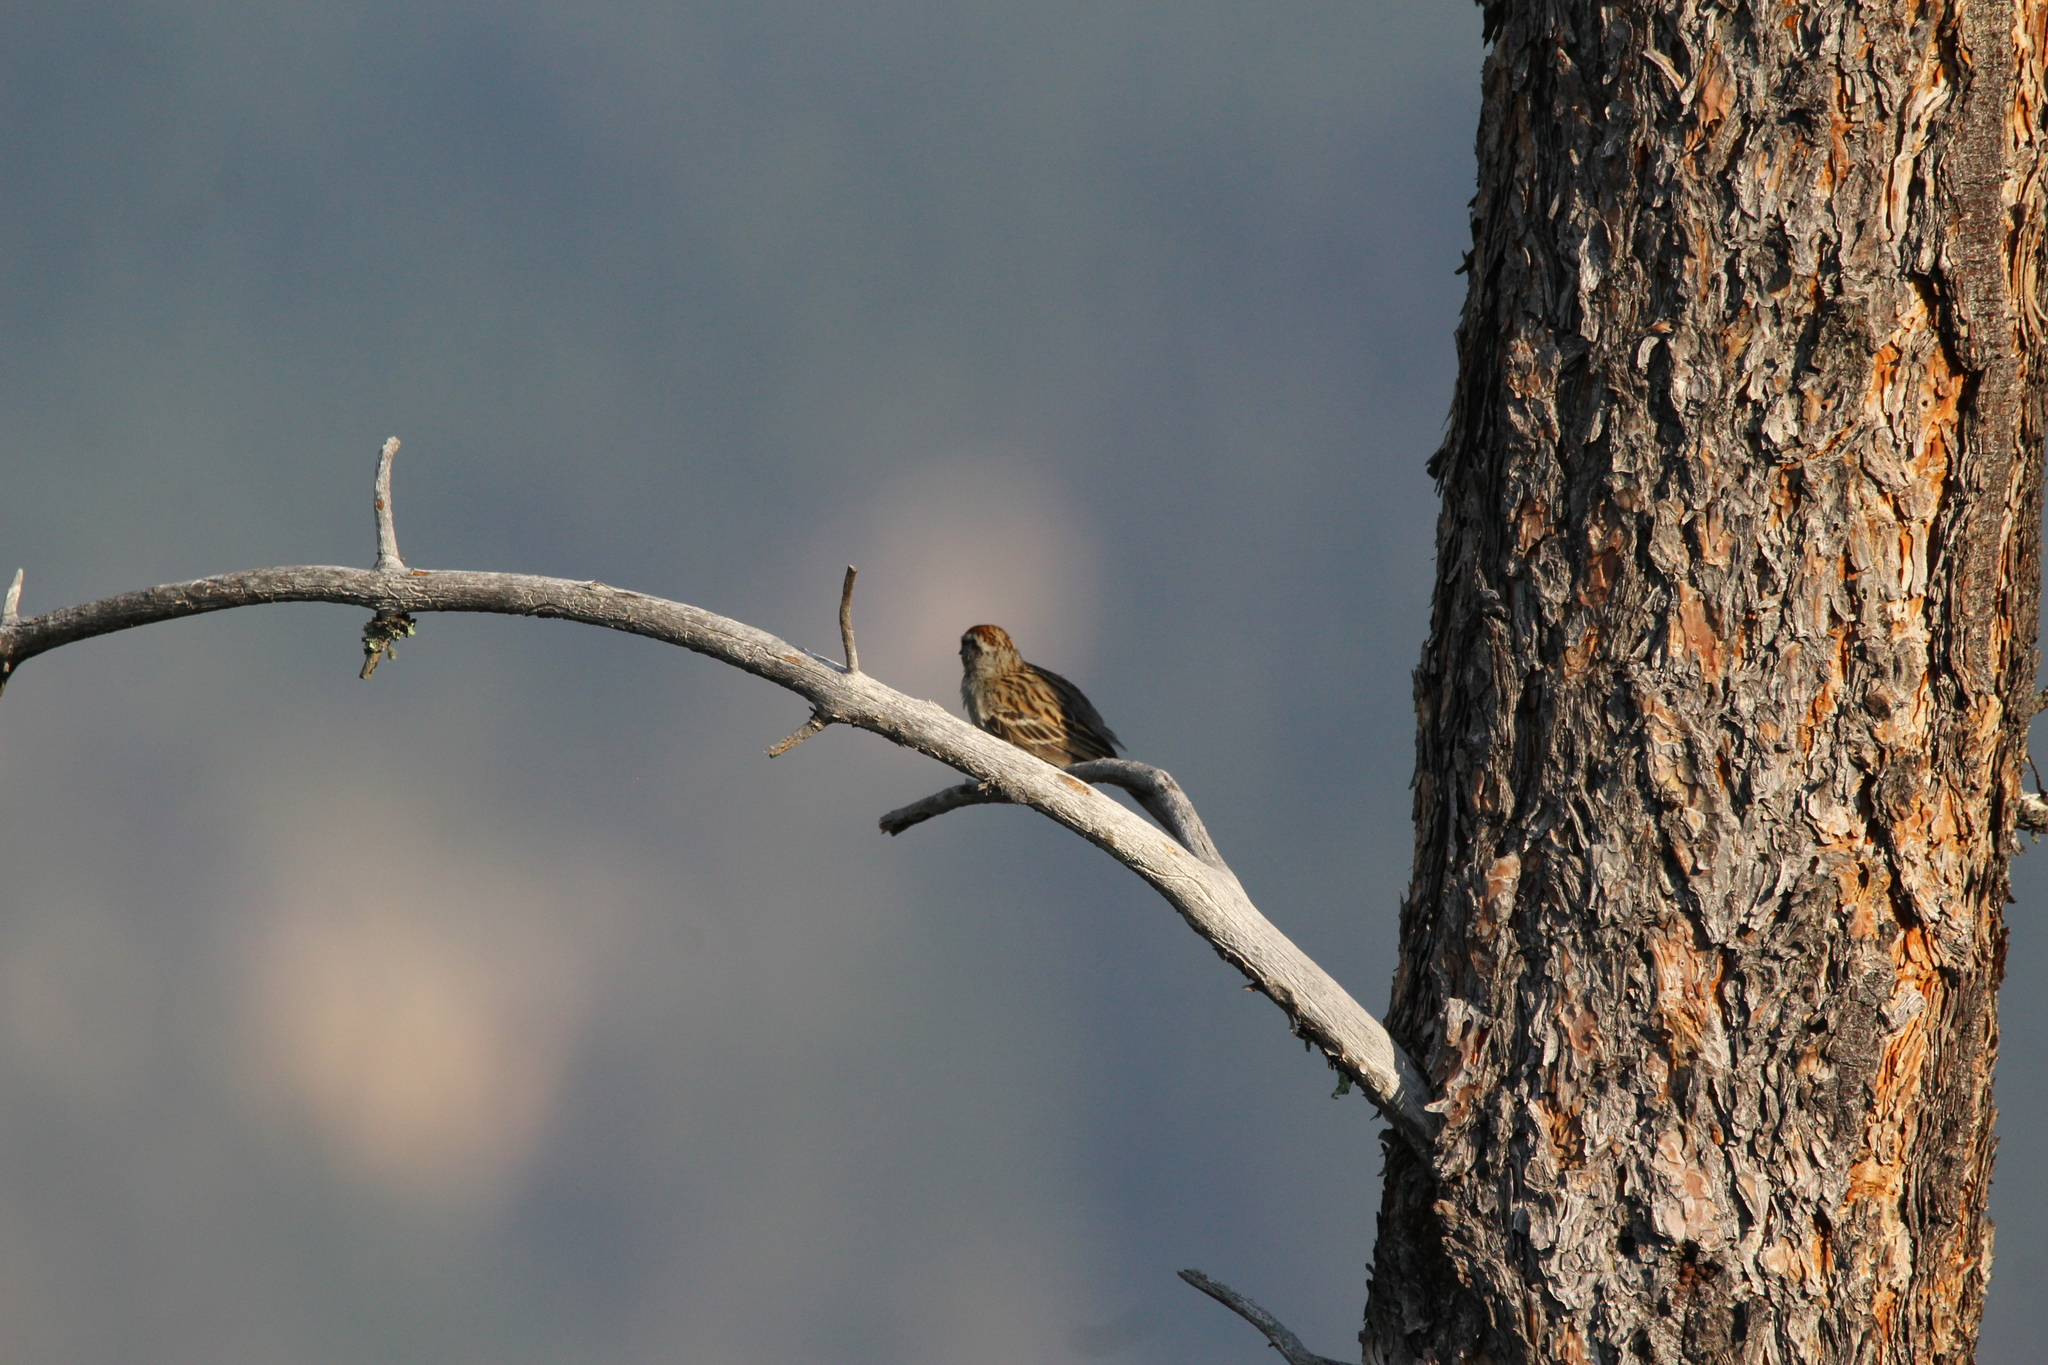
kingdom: Animalia
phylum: Chordata
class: Aves
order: Passeriformes
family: Passerellidae
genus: Spizella
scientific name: Spizella passerina
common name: Chipping sparrow
